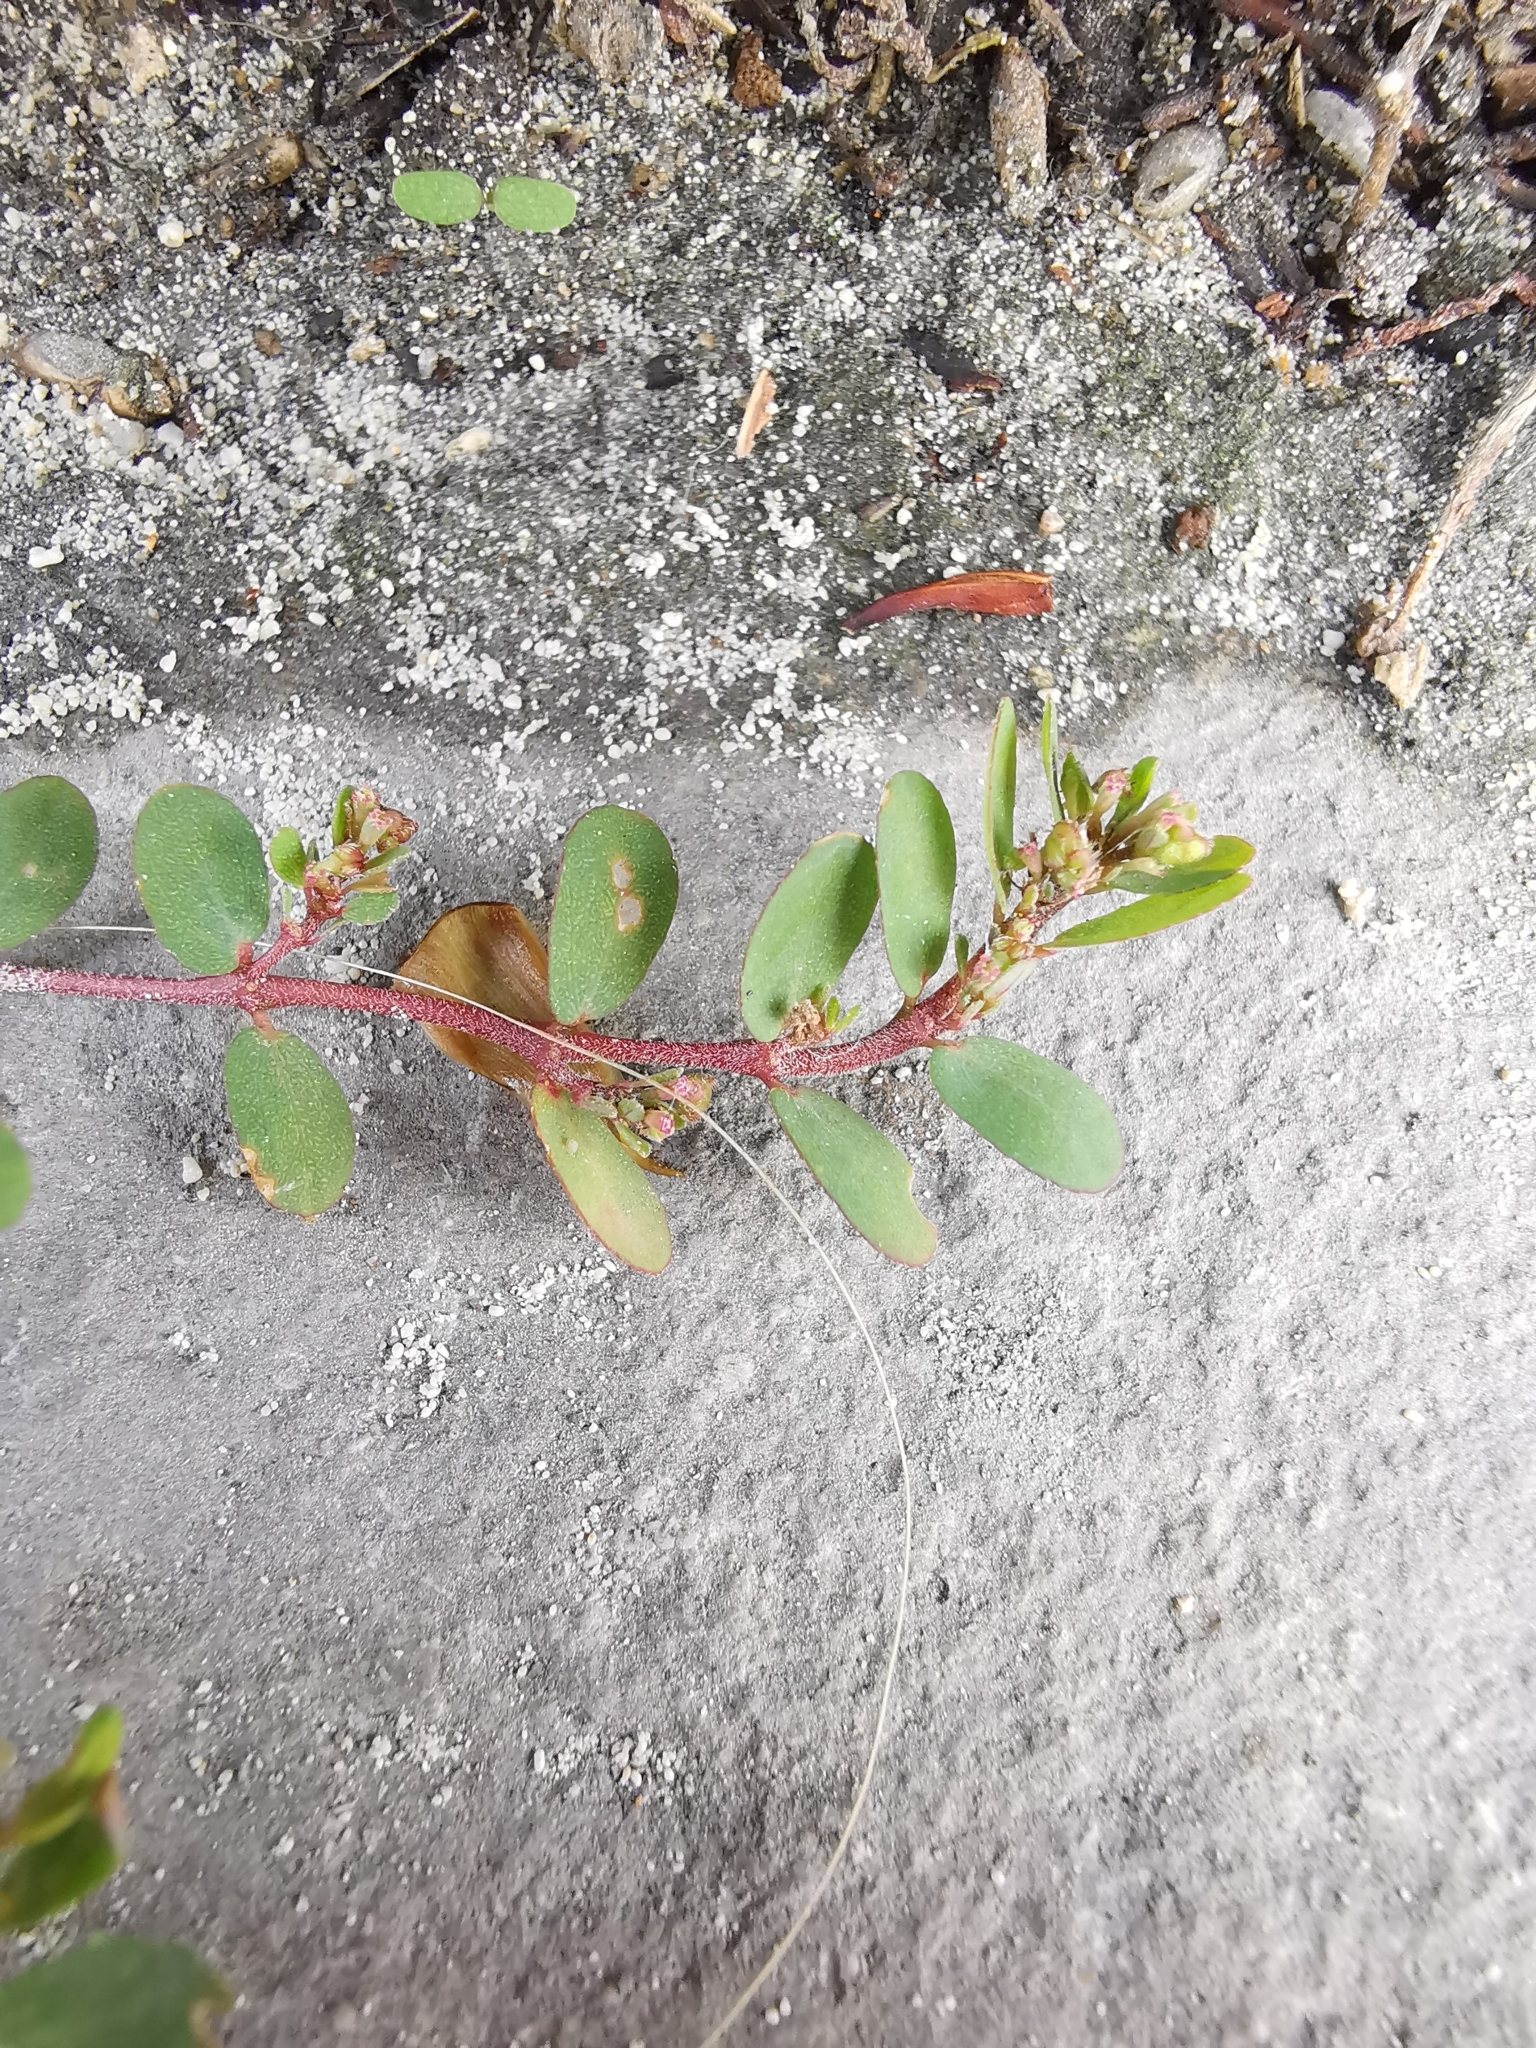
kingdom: Plantae
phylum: Tracheophyta
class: Magnoliopsida
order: Malpighiales
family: Euphorbiaceae
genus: Euphorbia
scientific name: Euphorbia prostrata
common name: Prostrate sandmat
